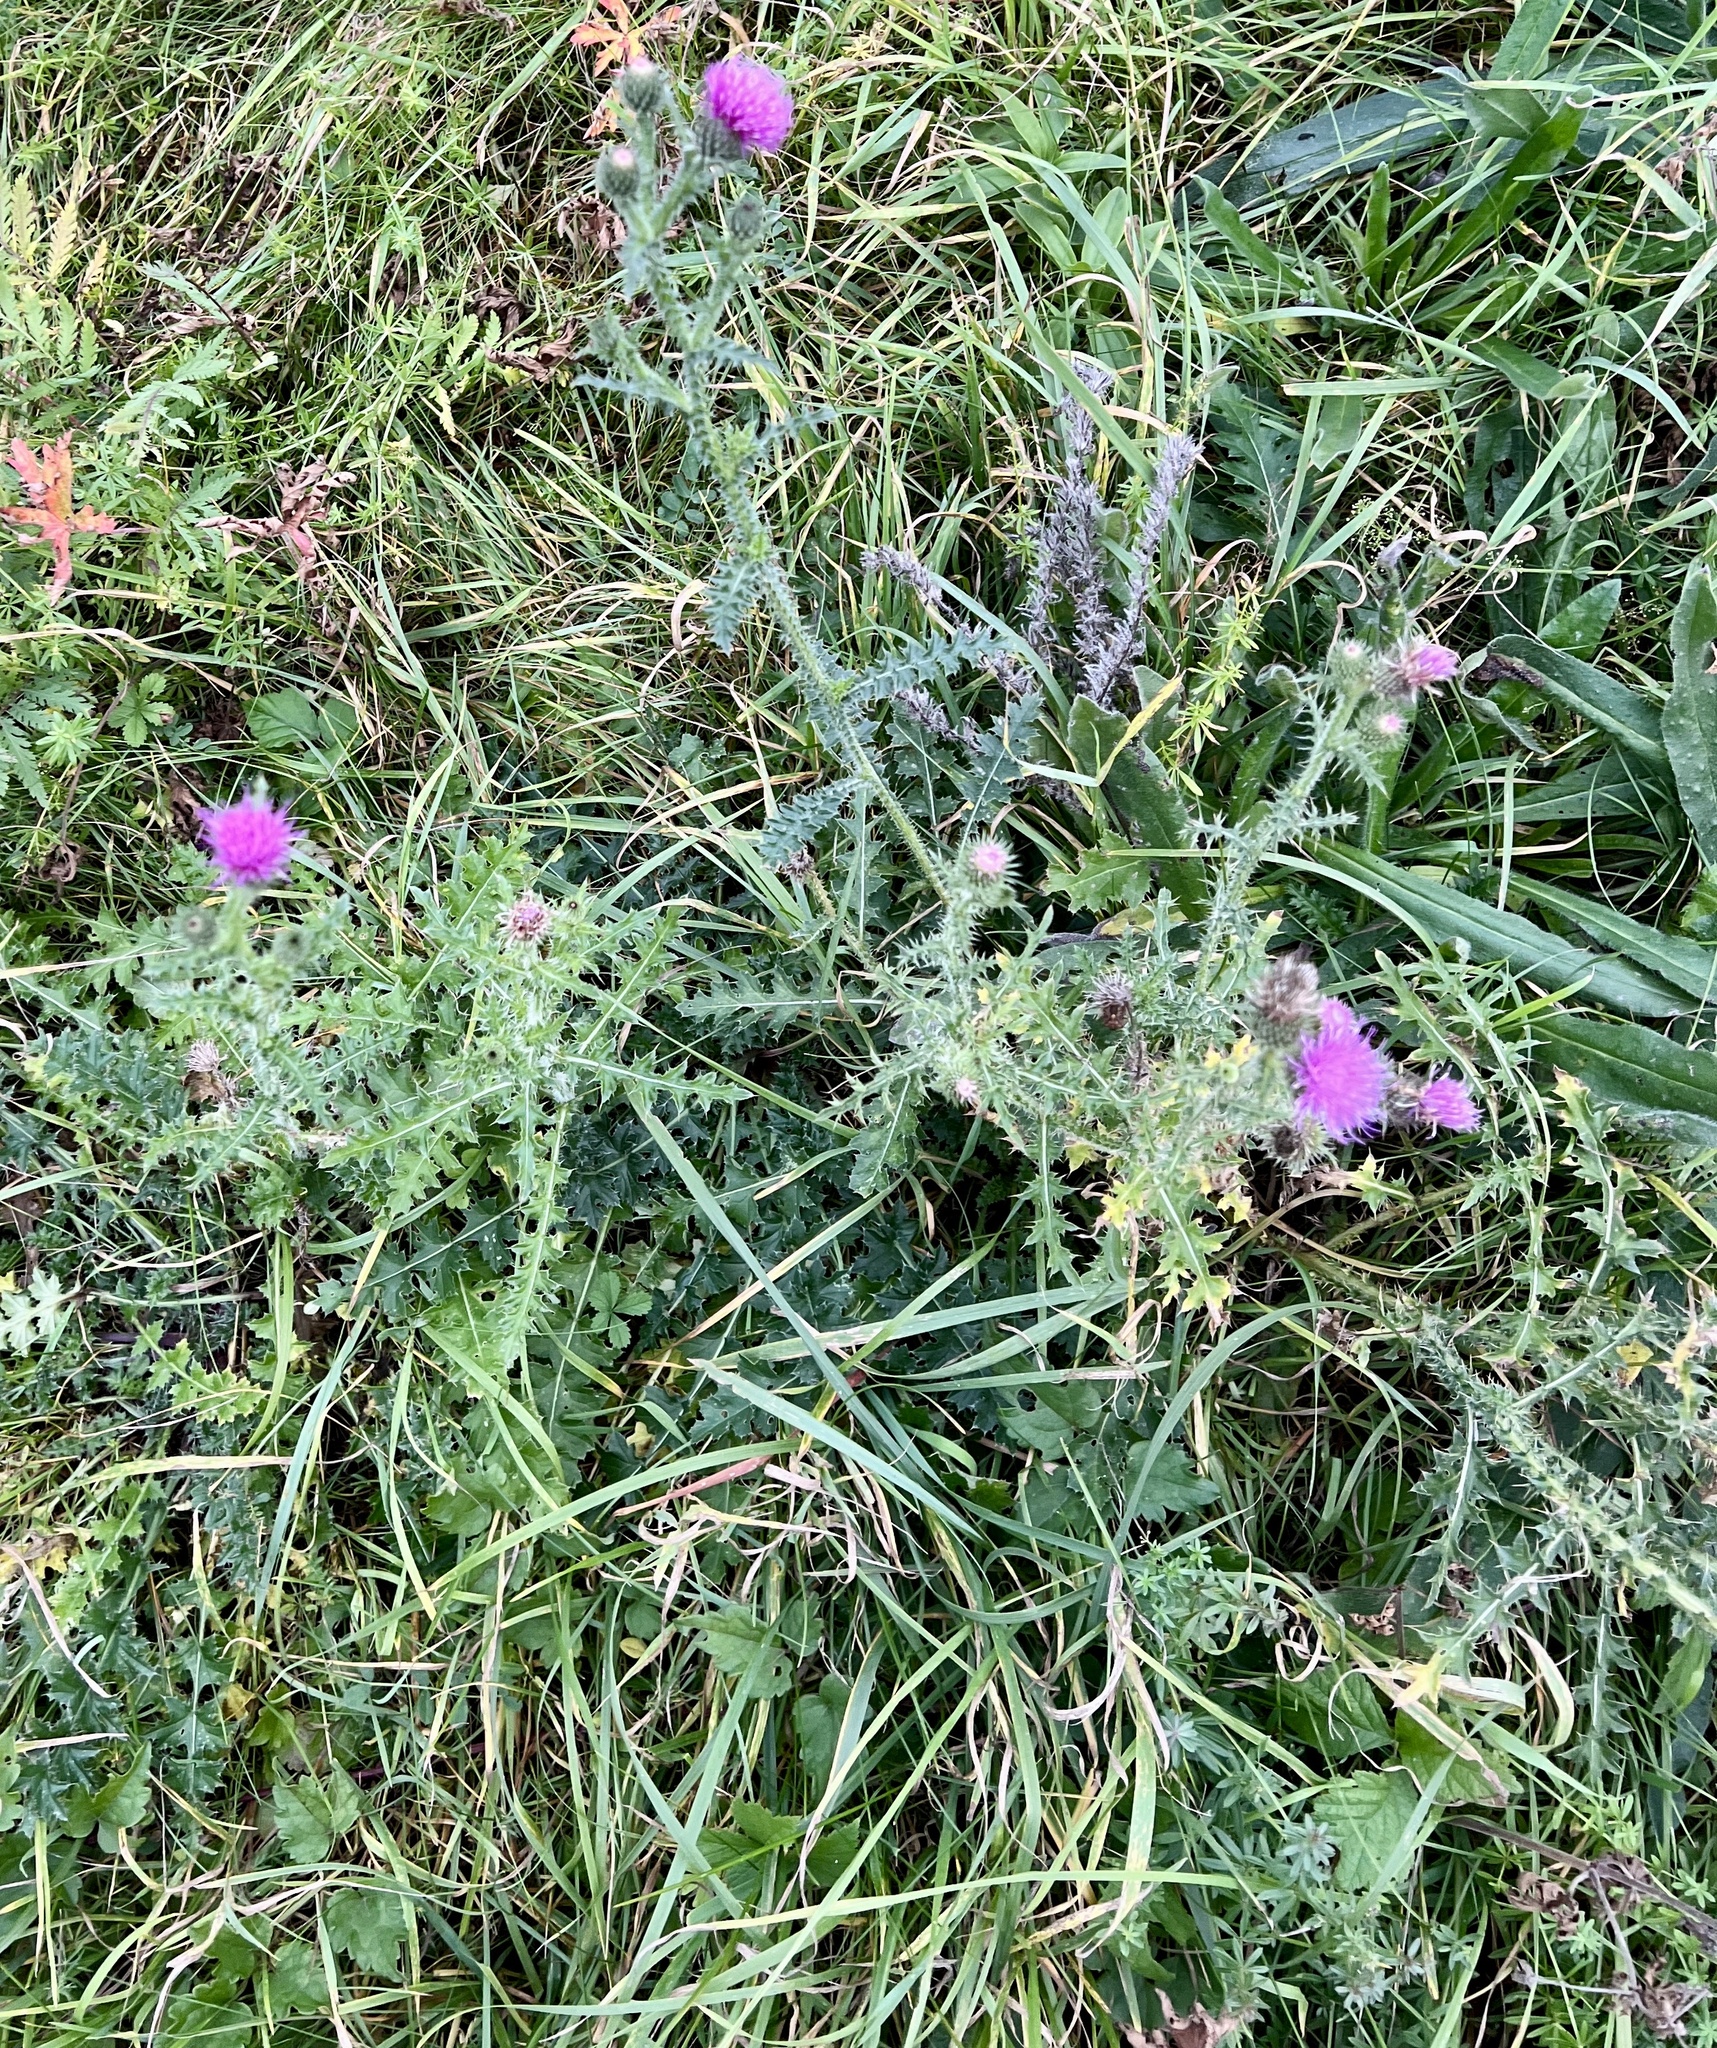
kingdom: Plantae
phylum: Tracheophyta
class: Magnoliopsida
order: Asterales
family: Asteraceae
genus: Carduus
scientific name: Carduus acanthoides
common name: Plumeless thistle
